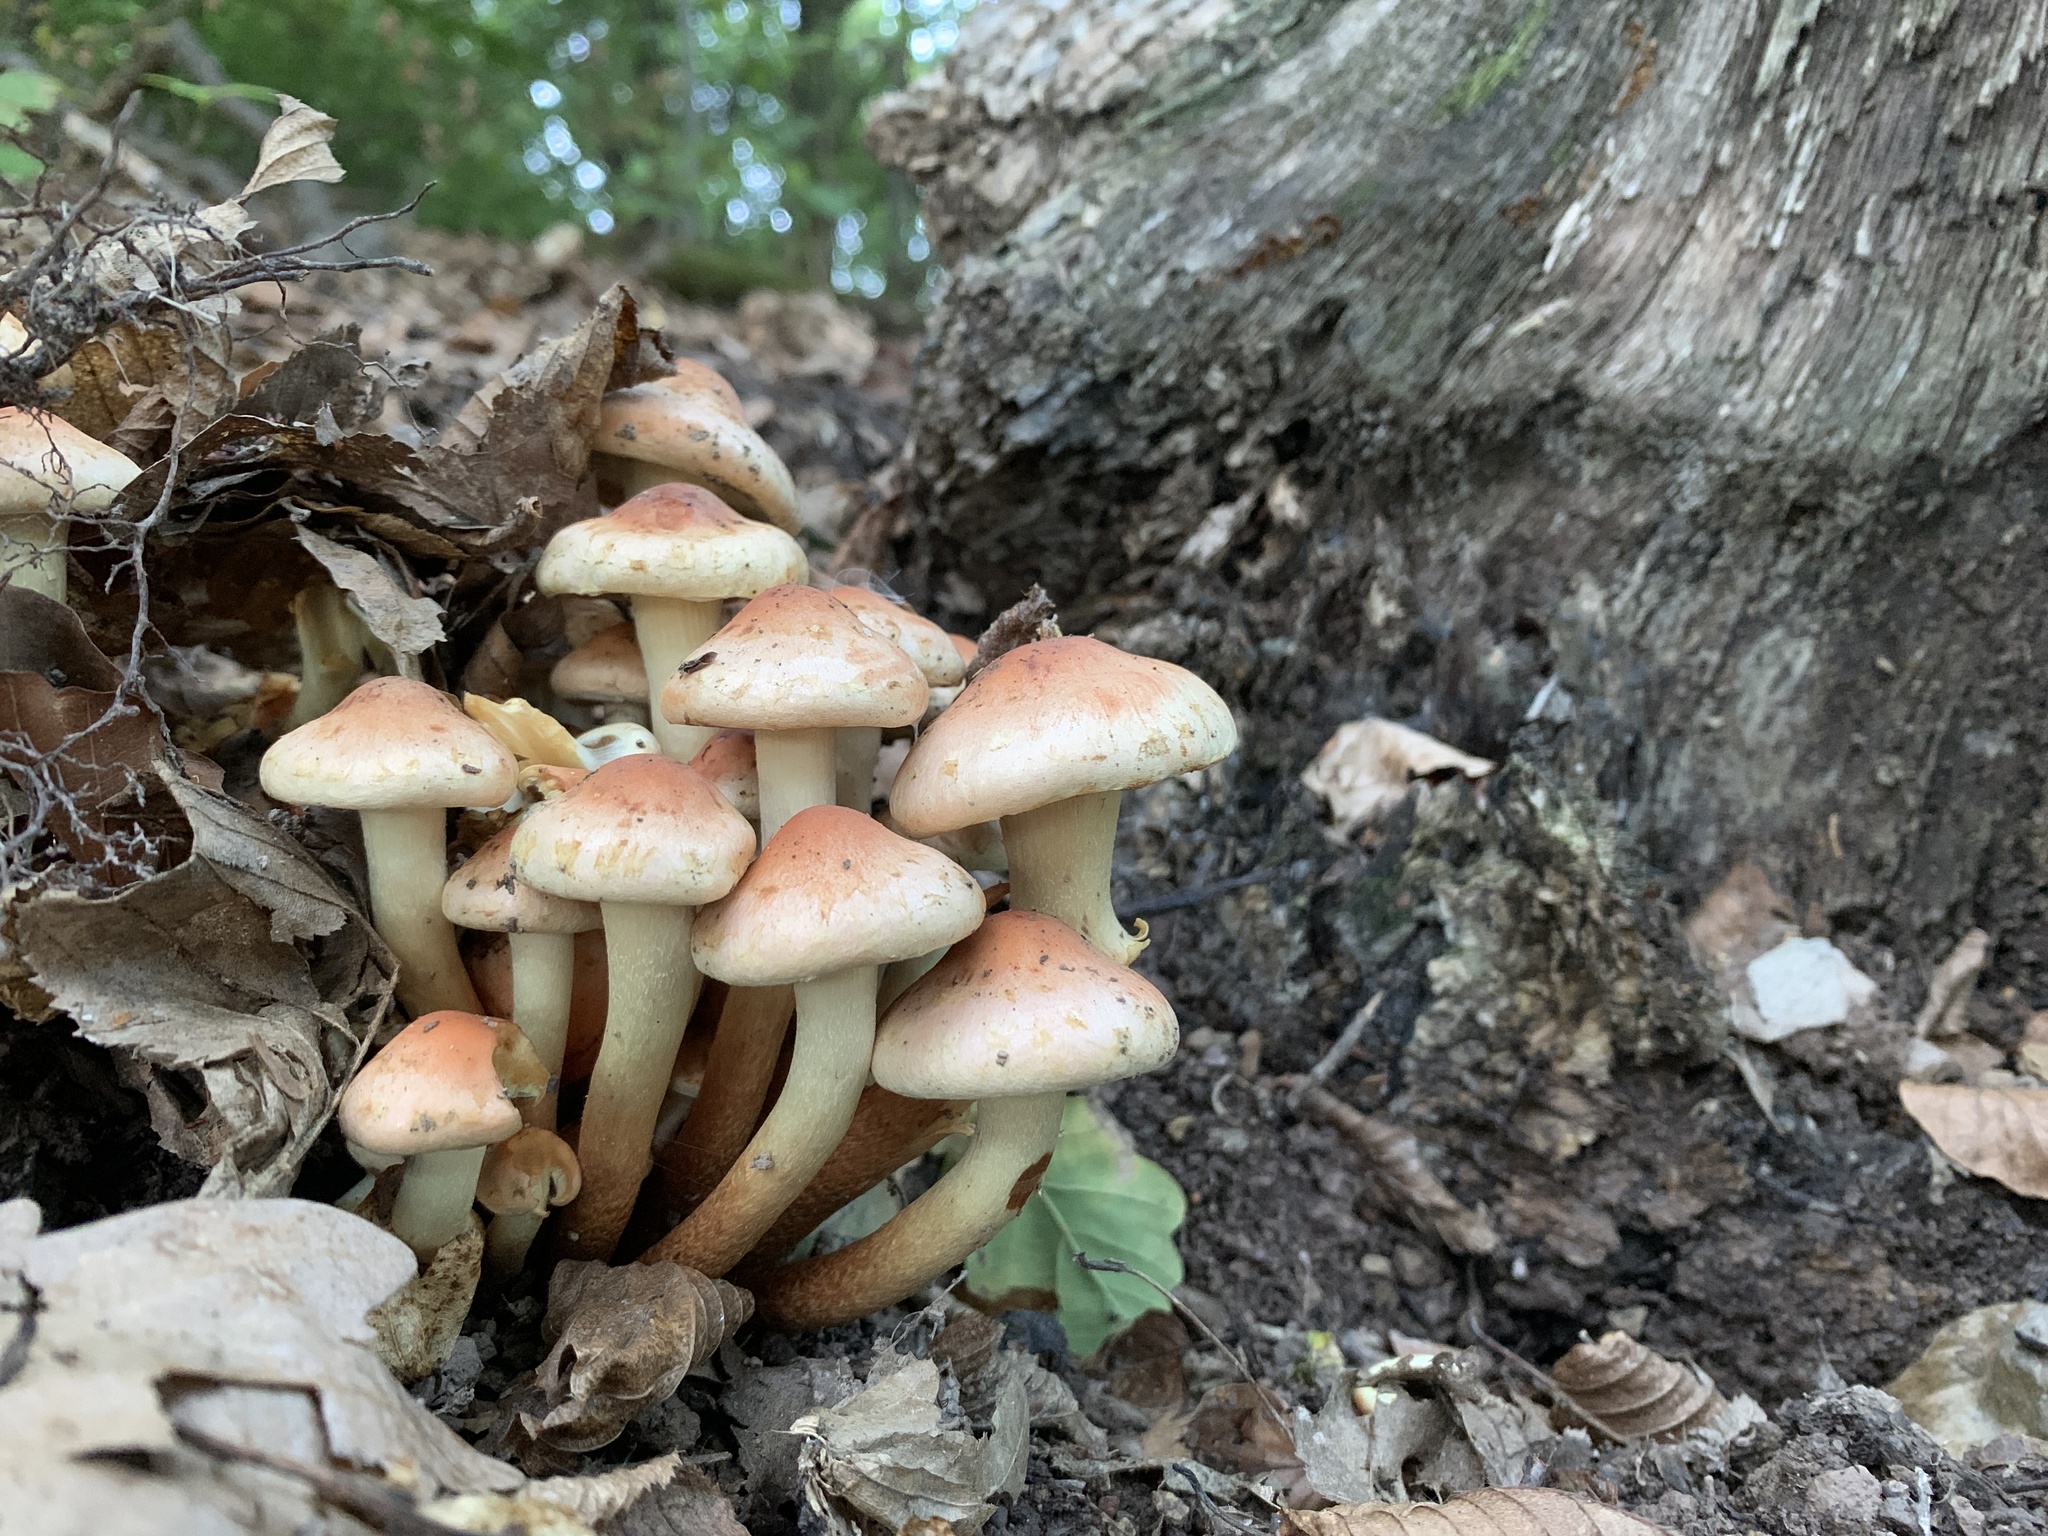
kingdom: Fungi
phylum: Basidiomycota
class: Agaricomycetes
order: Agaricales
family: Strophariaceae
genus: Hypholoma
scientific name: Hypholoma lateritium
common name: Brick caps
